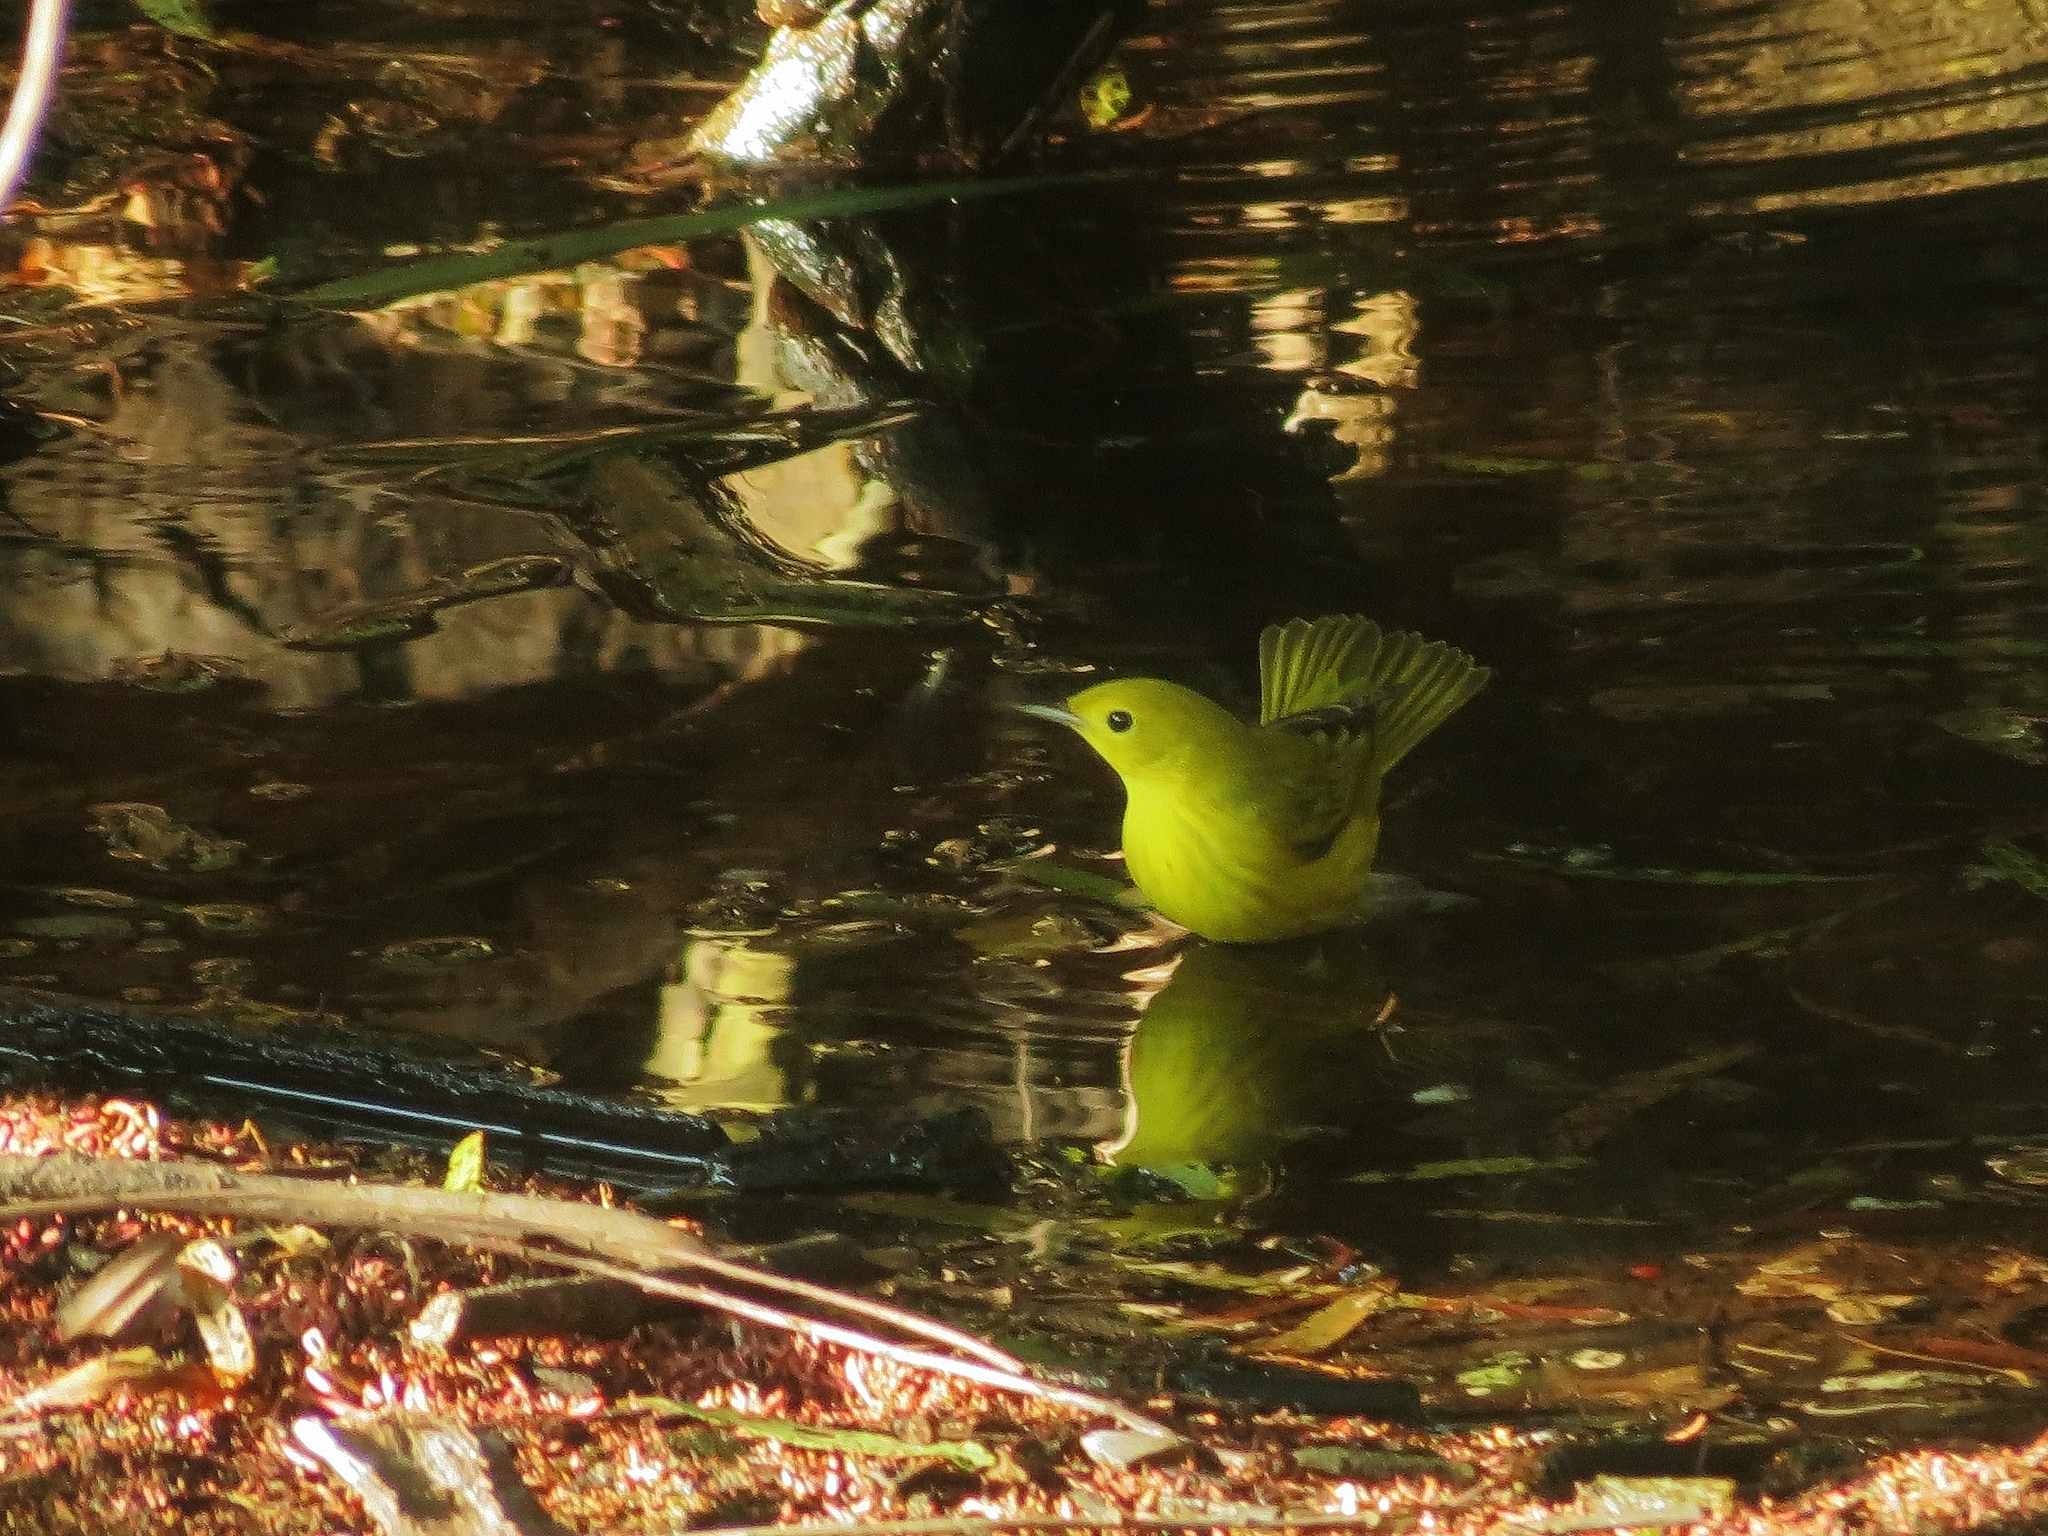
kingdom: Animalia
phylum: Chordata
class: Aves
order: Passeriformes
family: Parulidae
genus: Setophaga
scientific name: Setophaga petechia
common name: Yellow warbler
